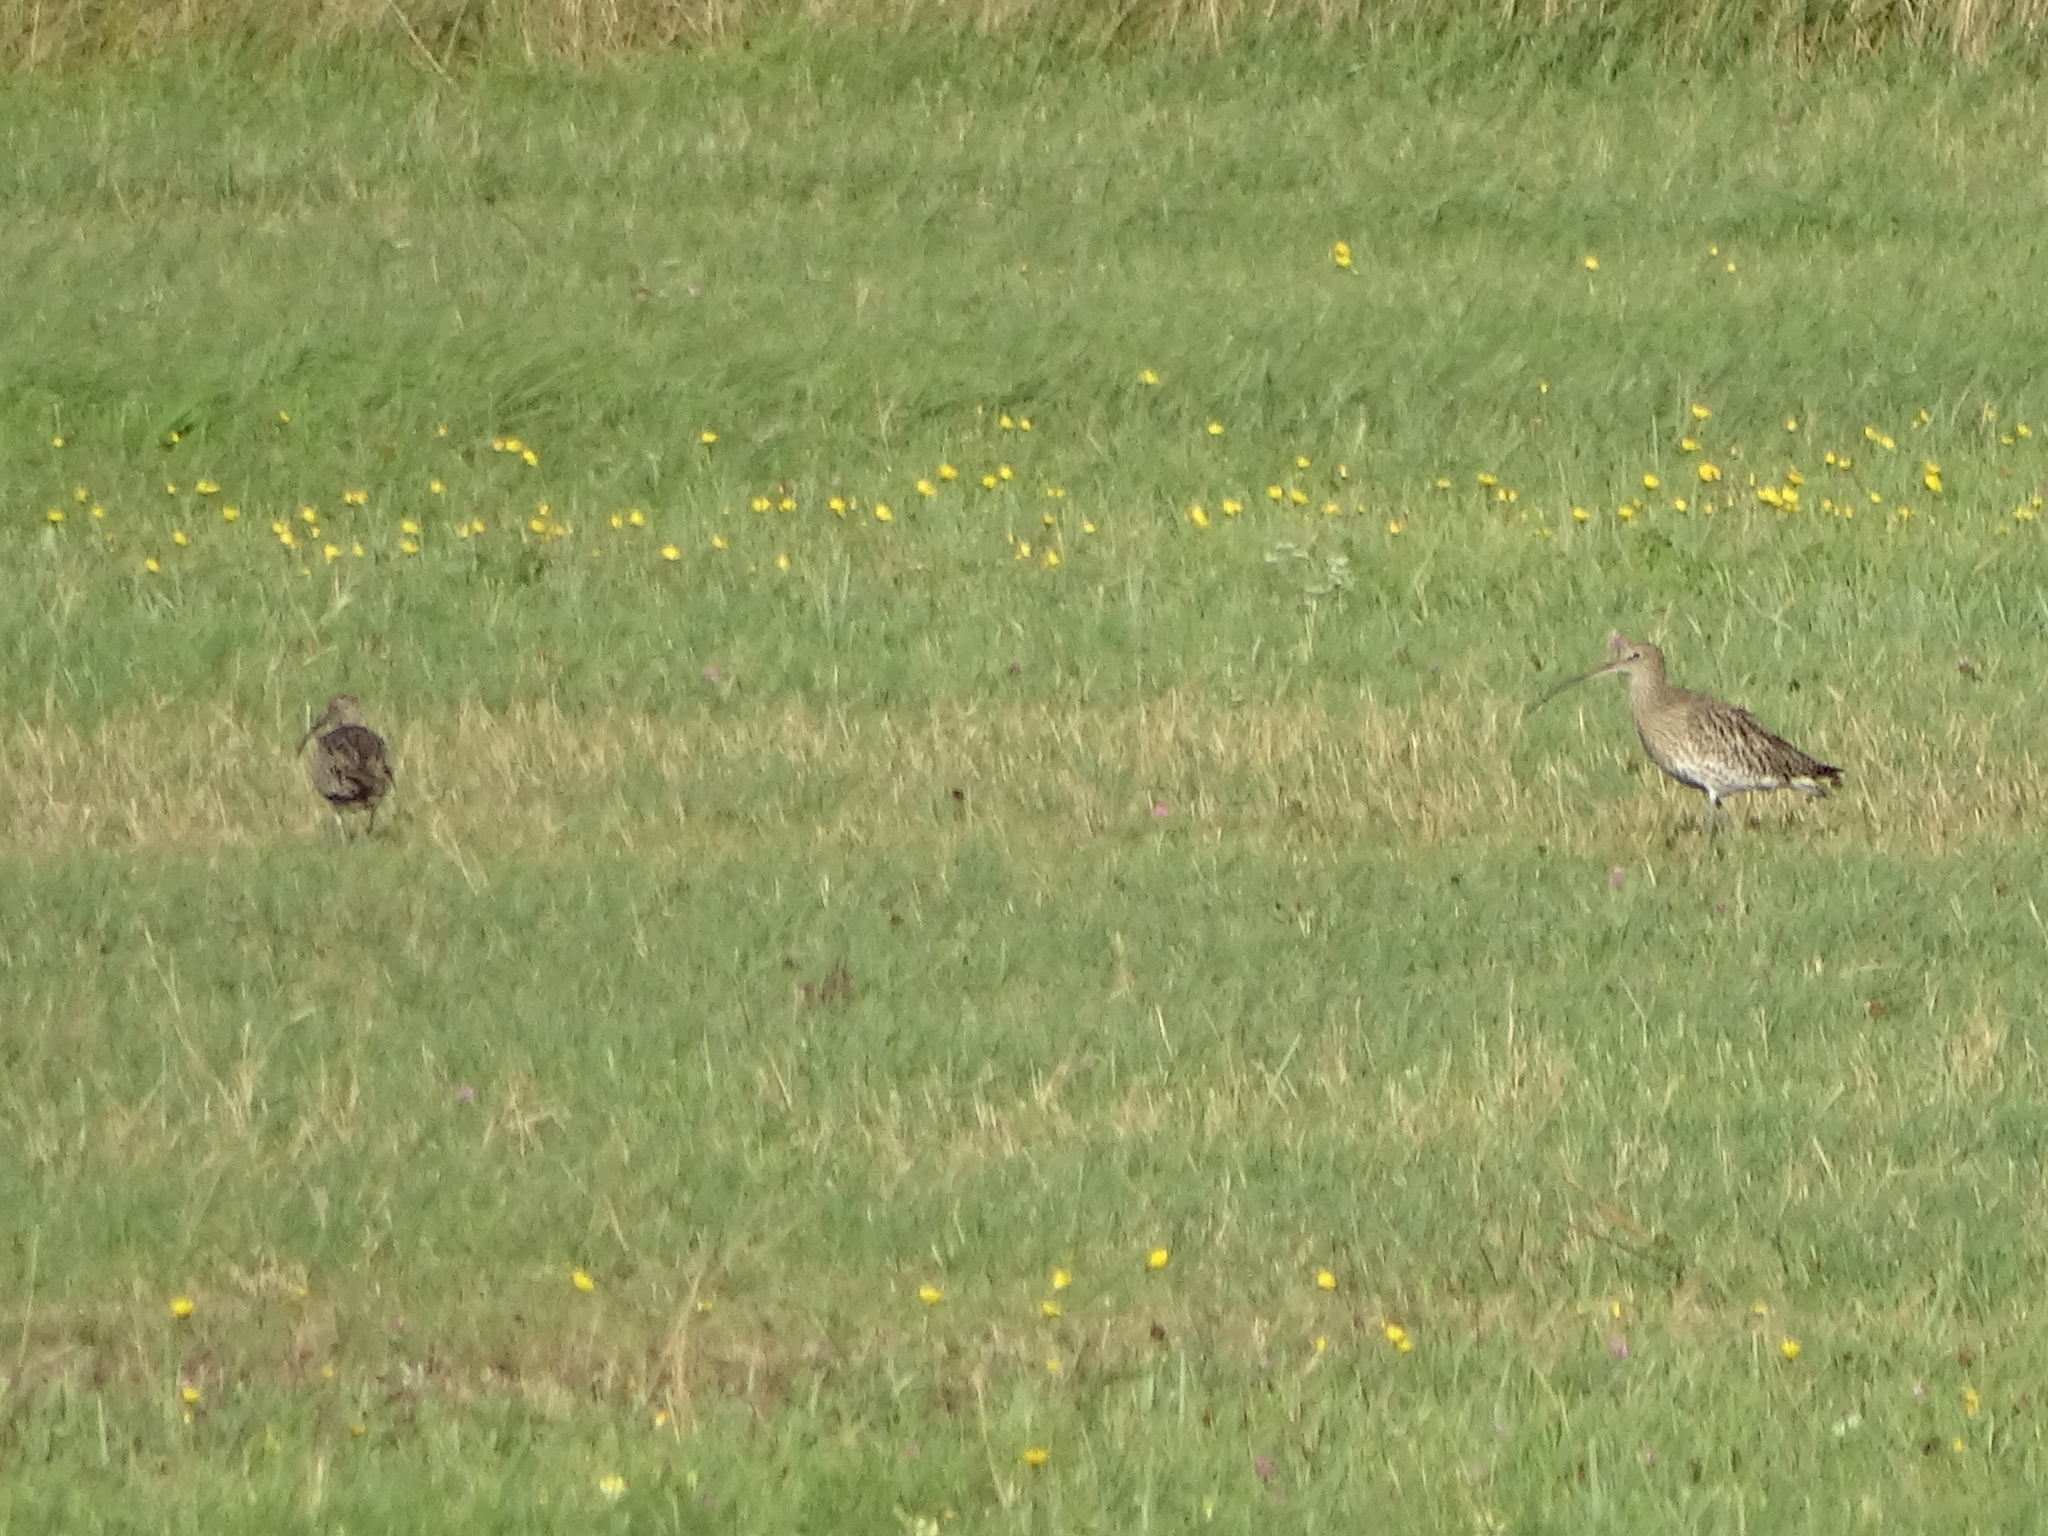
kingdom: Animalia
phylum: Chordata
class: Aves
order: Charadriiformes
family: Scolopacidae
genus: Numenius
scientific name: Numenius arquata
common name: Eurasian curlew
